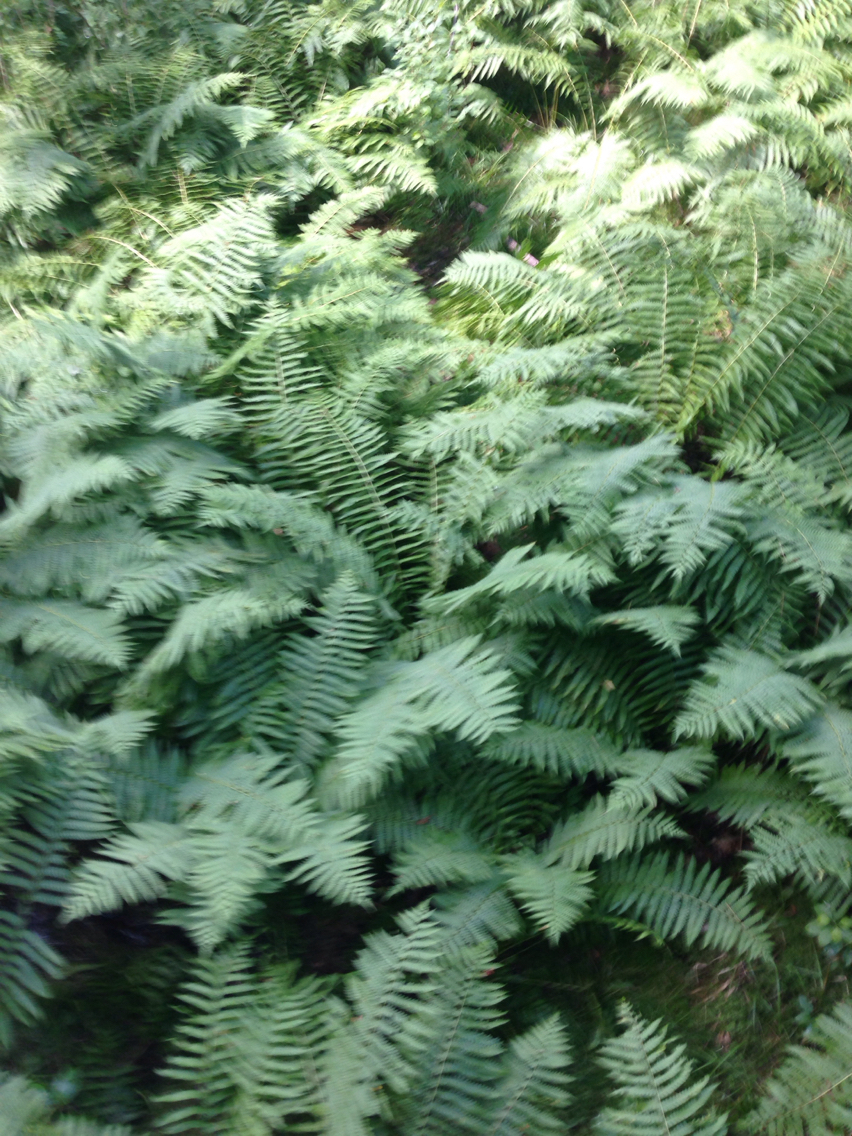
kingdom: Plantae
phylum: Tracheophyta
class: Polypodiopsida
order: Osmundales
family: Osmundaceae
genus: Osmundastrum
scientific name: Osmundastrum cinnamomeum
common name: Cinnamon fern
